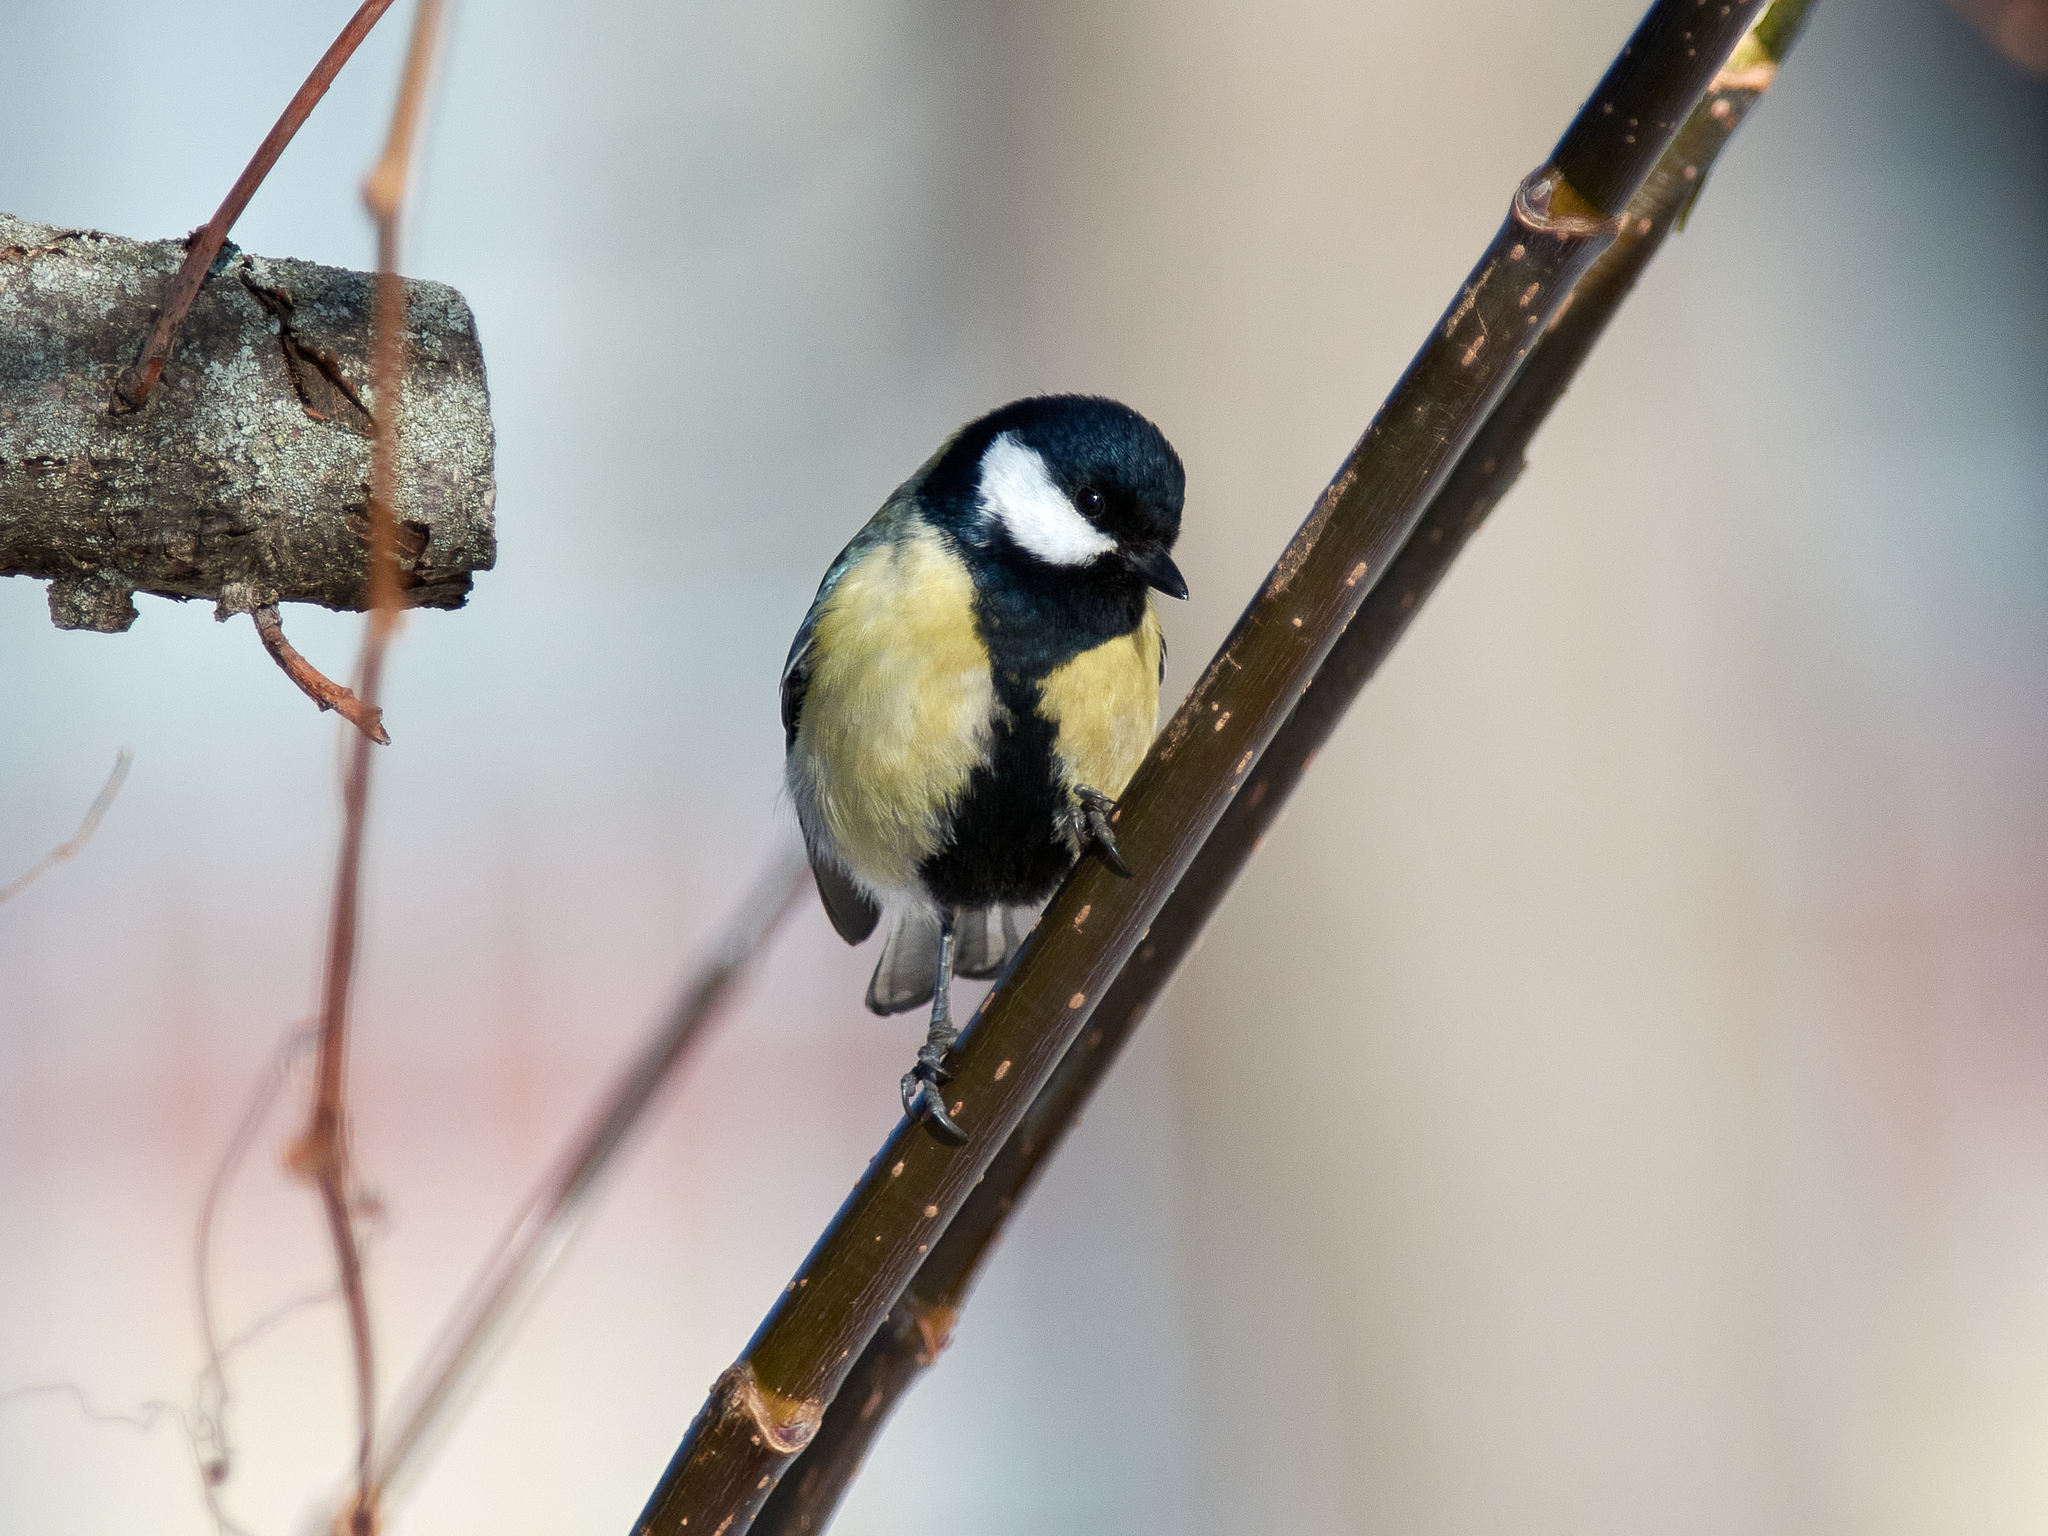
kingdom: Animalia
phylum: Chordata
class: Aves
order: Passeriformes
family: Paridae
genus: Parus
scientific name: Parus major
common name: Great tit
